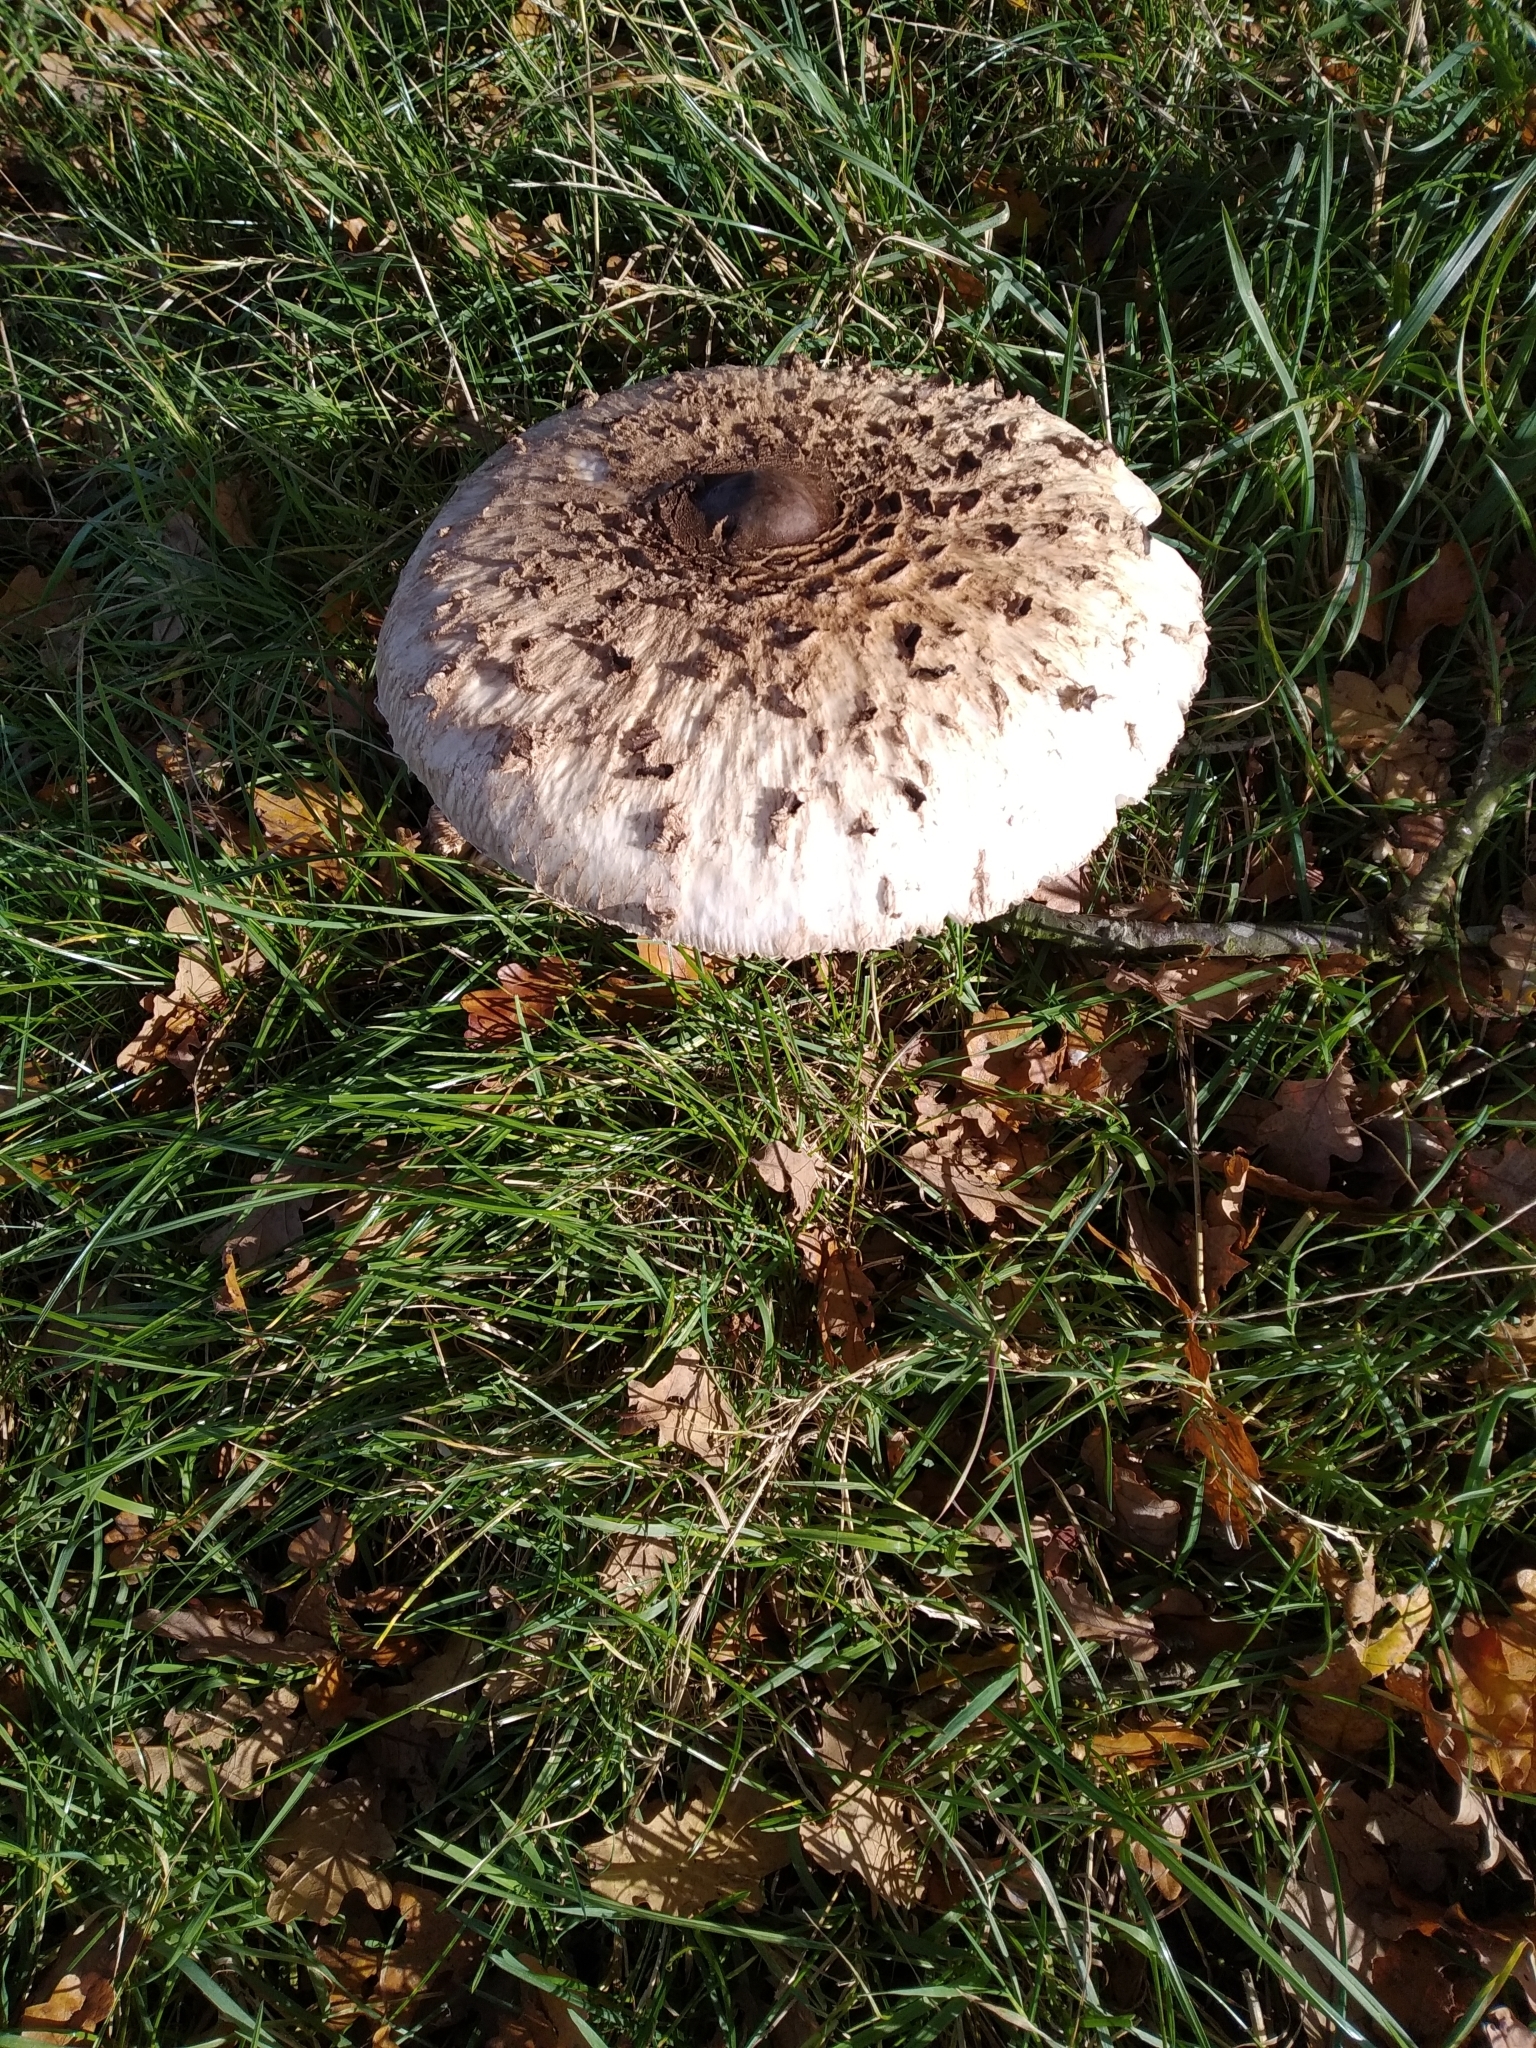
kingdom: Fungi
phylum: Basidiomycota
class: Agaricomycetes
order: Agaricales
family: Agaricaceae
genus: Macrolepiota
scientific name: Macrolepiota procera
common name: Parasol
